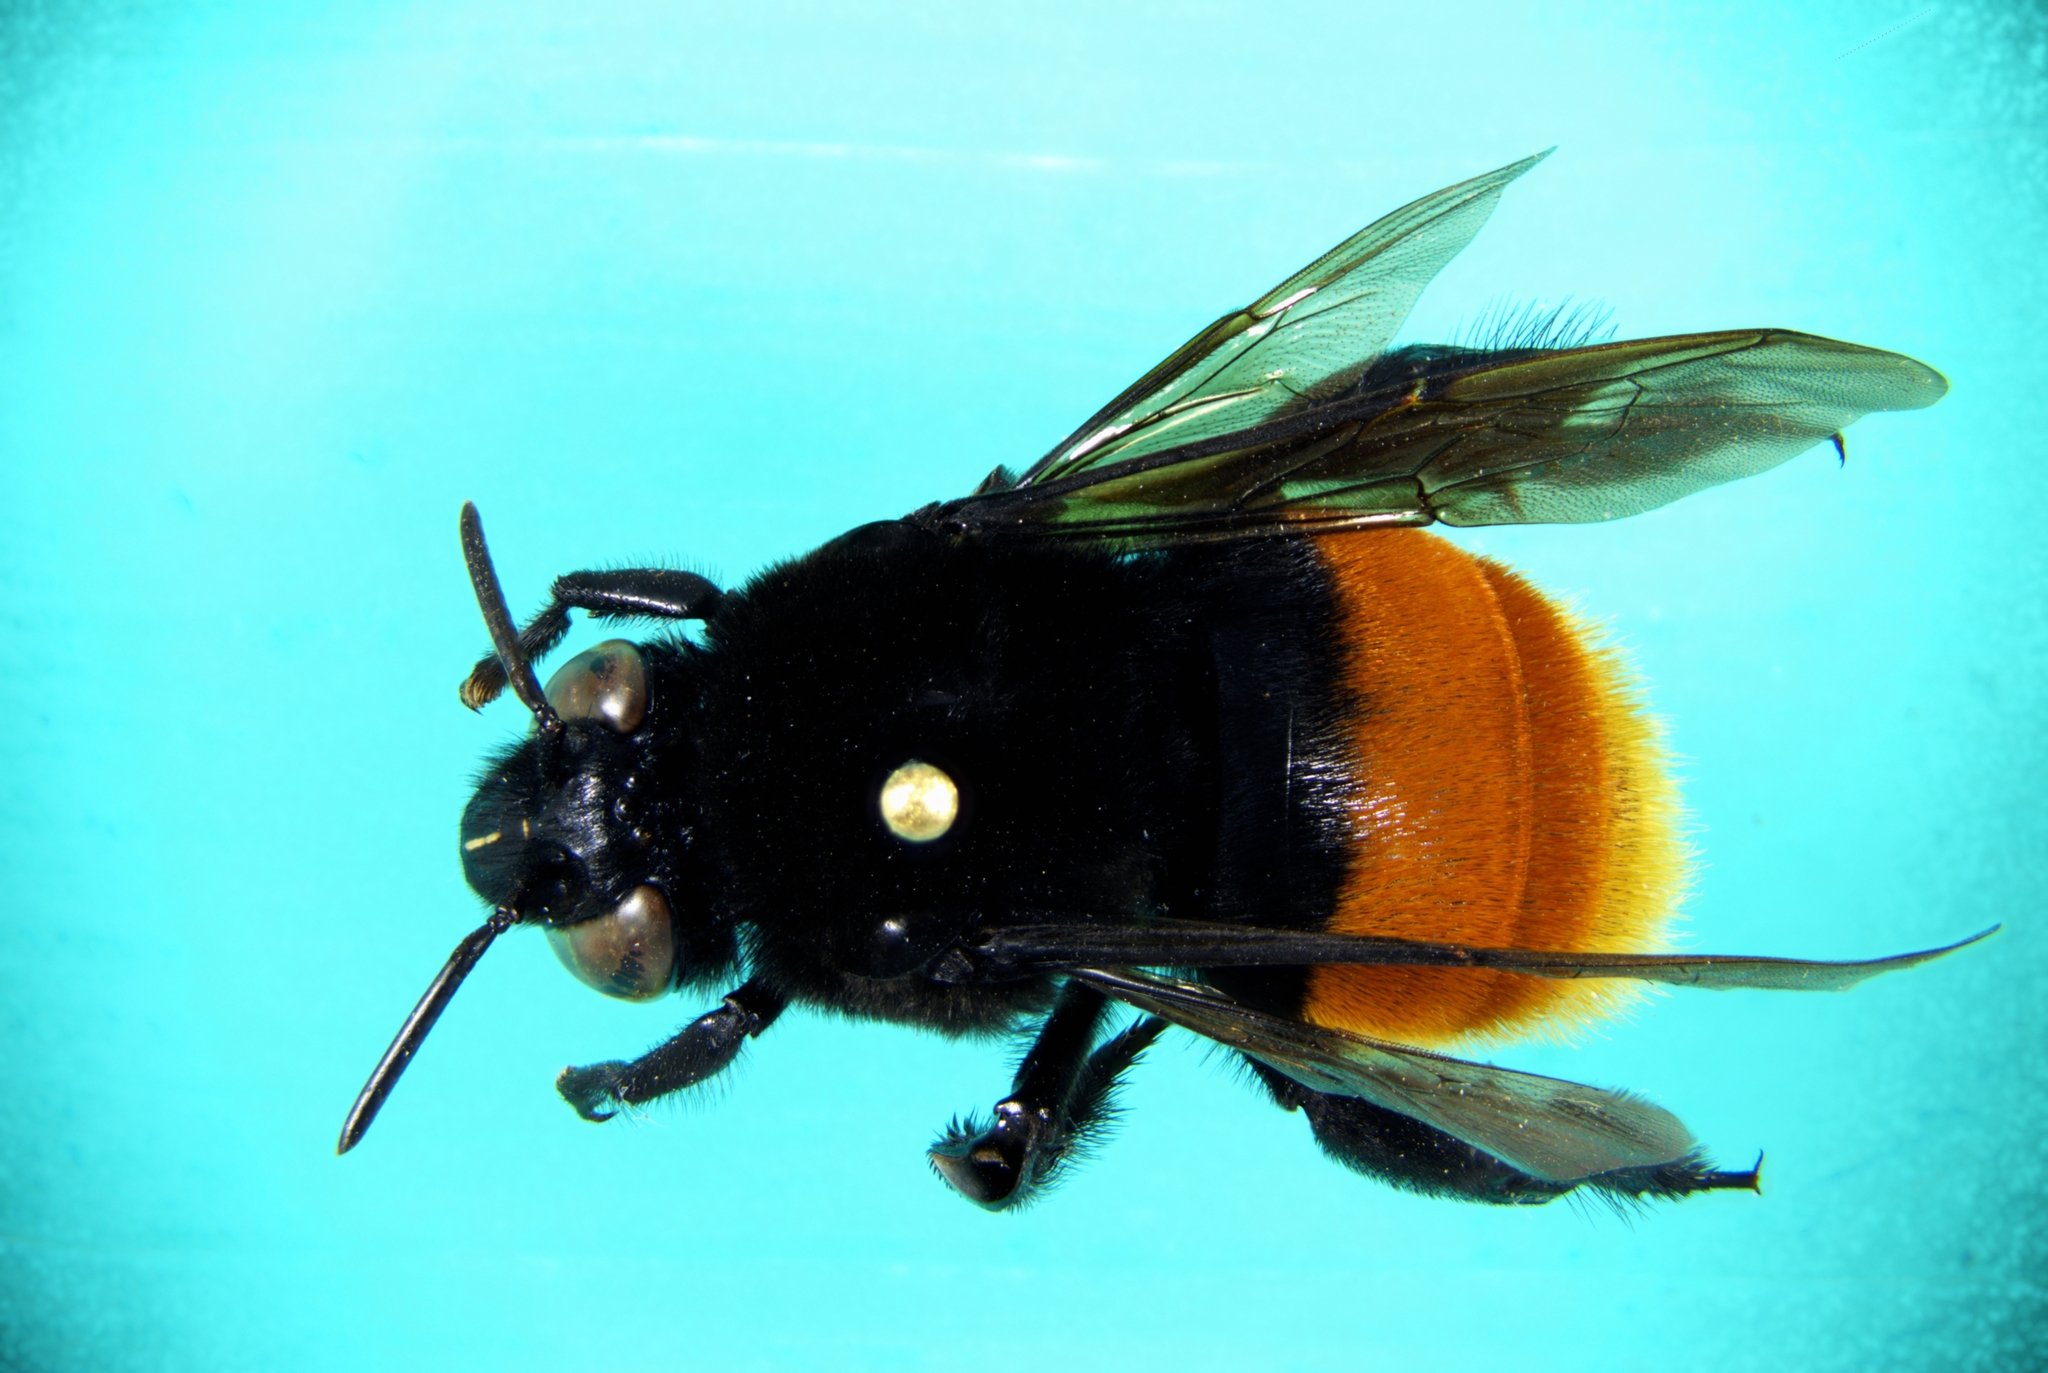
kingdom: Animalia
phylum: Arthropoda
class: Insecta
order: Hymenoptera
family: Apidae
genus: Eulaema
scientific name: Eulaema polychroma
